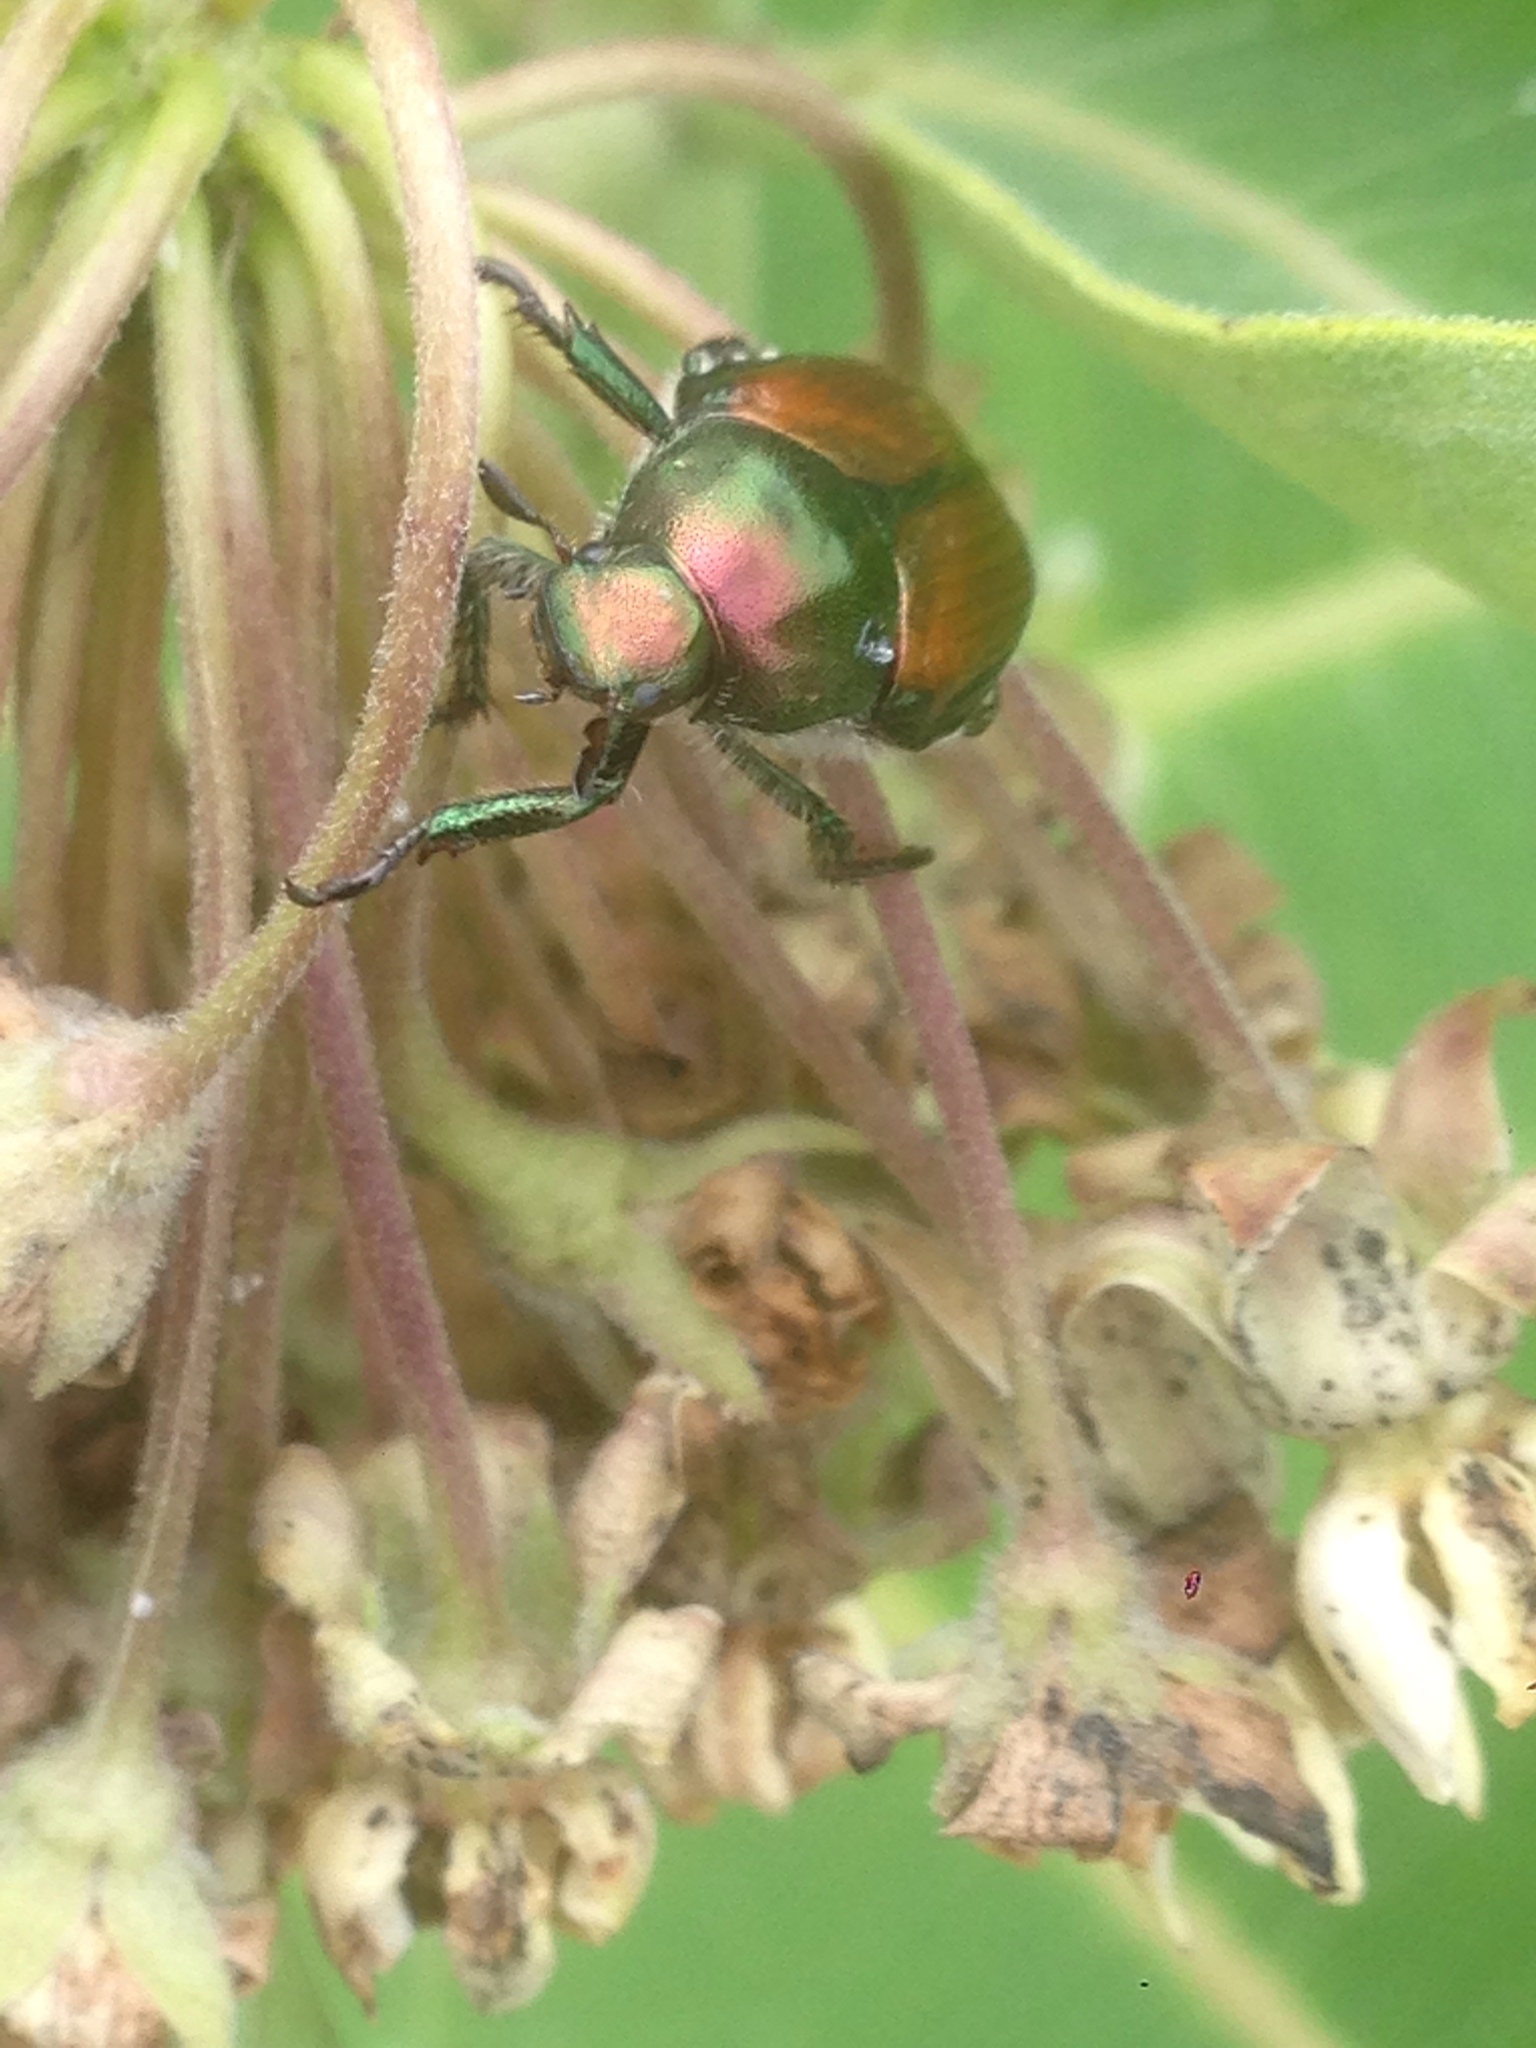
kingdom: Animalia
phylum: Arthropoda
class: Insecta
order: Coleoptera
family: Scarabaeidae
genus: Popillia
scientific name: Popillia japonica
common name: Japanese beetle
